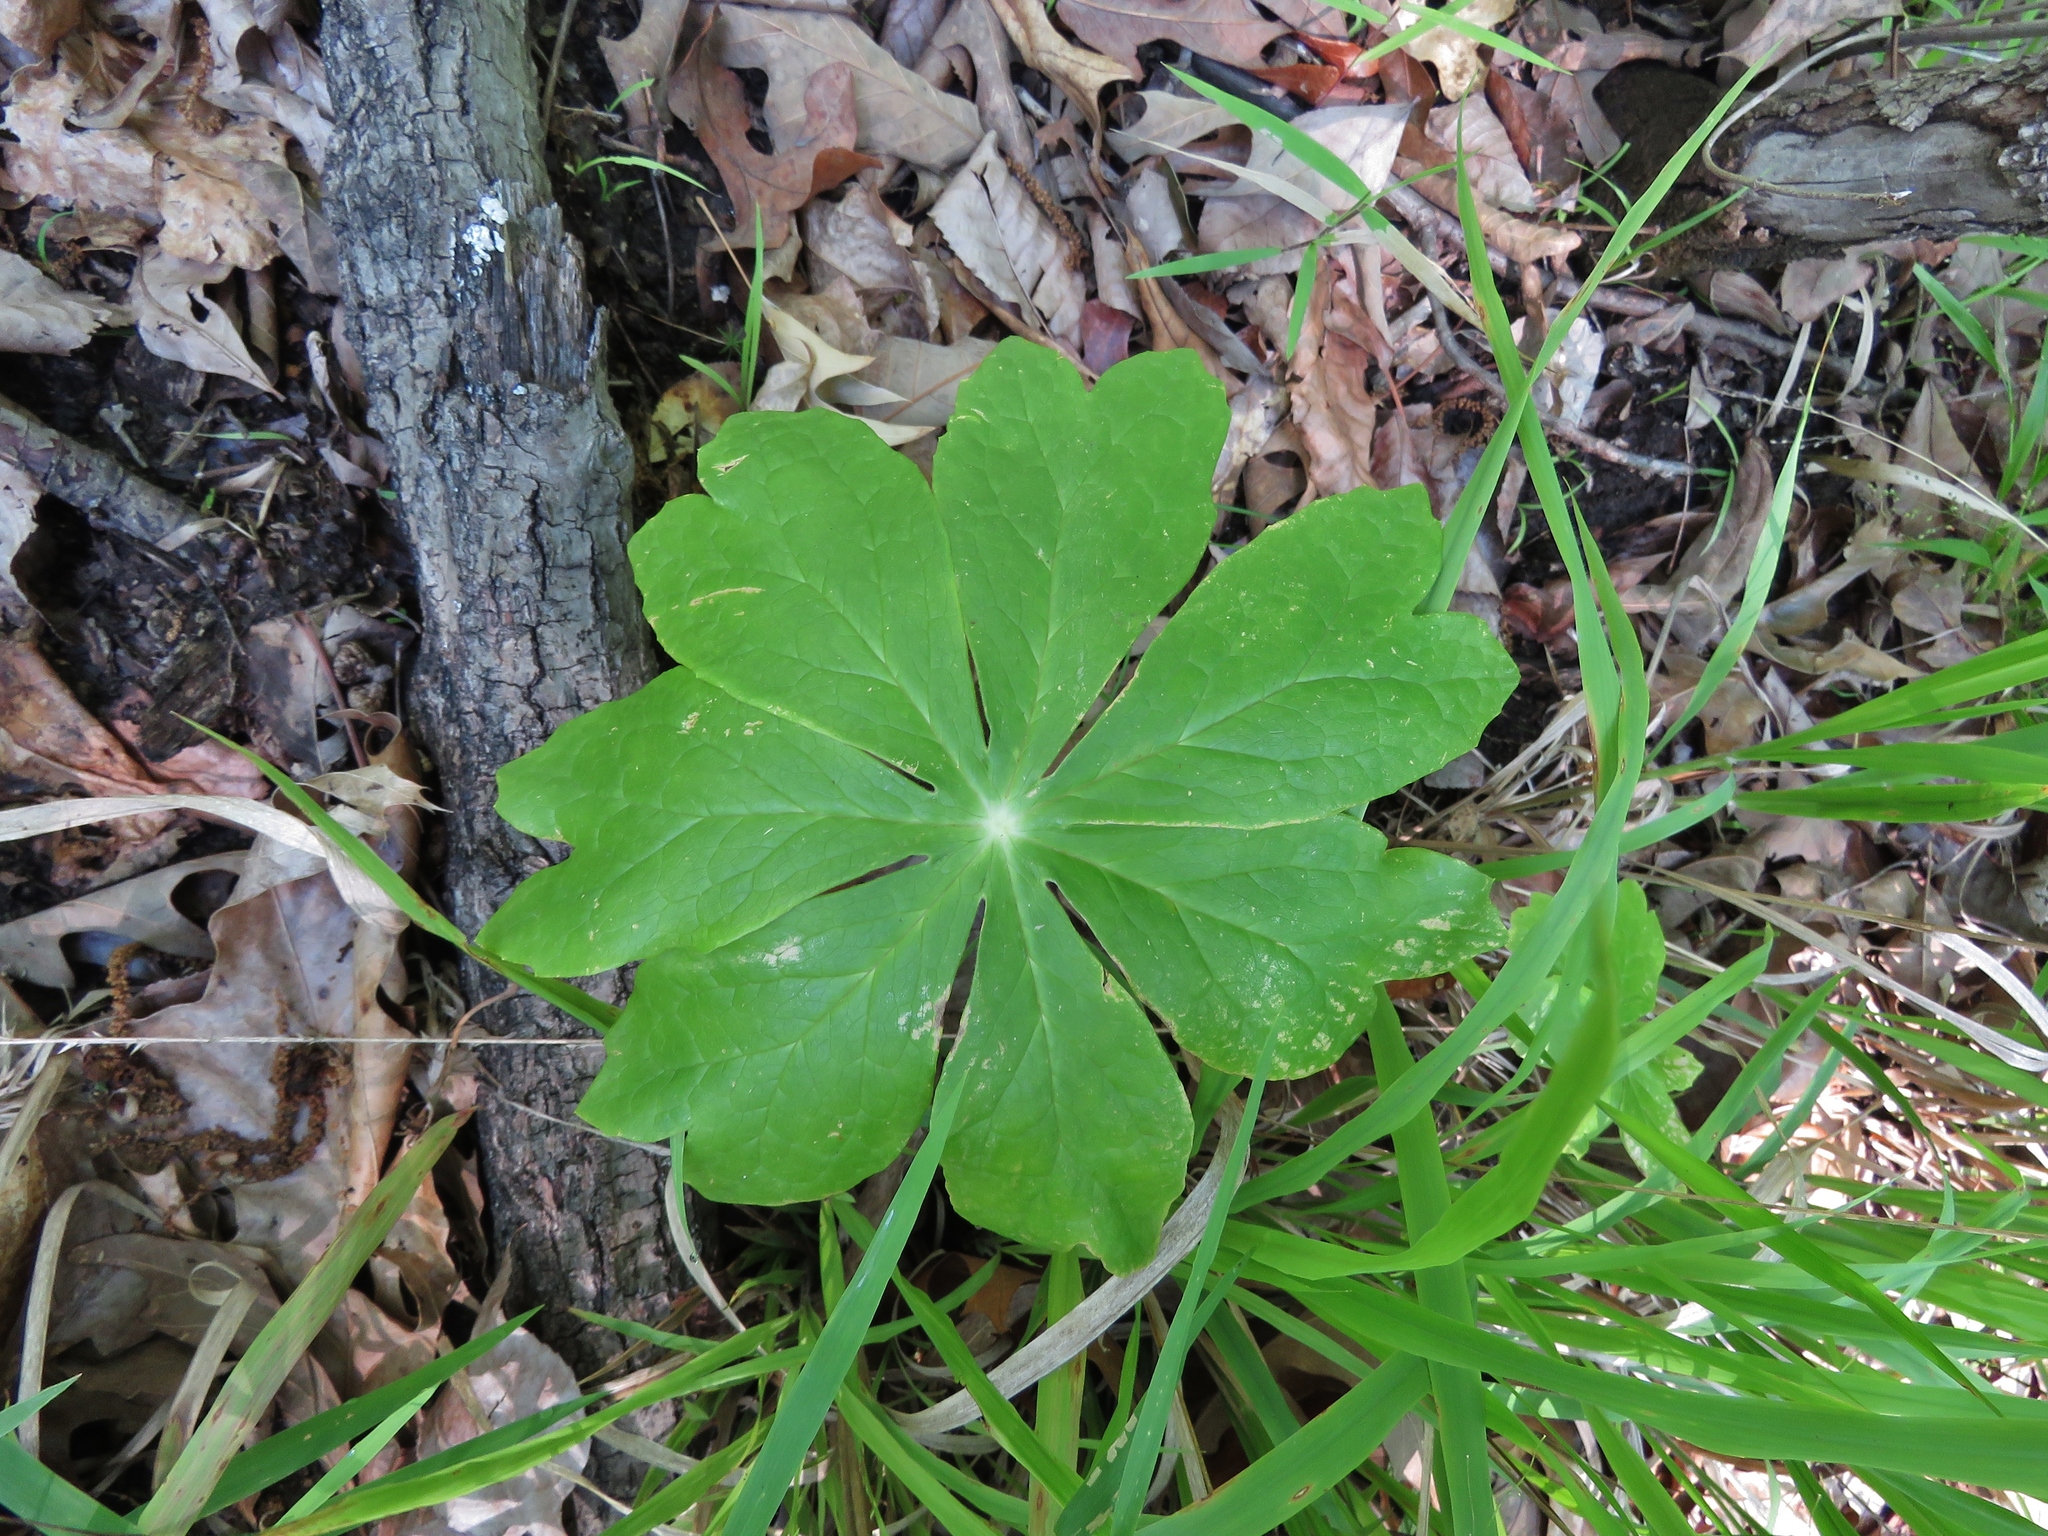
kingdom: Plantae
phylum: Tracheophyta
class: Magnoliopsida
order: Ranunculales
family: Berberidaceae
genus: Podophyllum
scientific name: Podophyllum peltatum
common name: Wild mandrake
